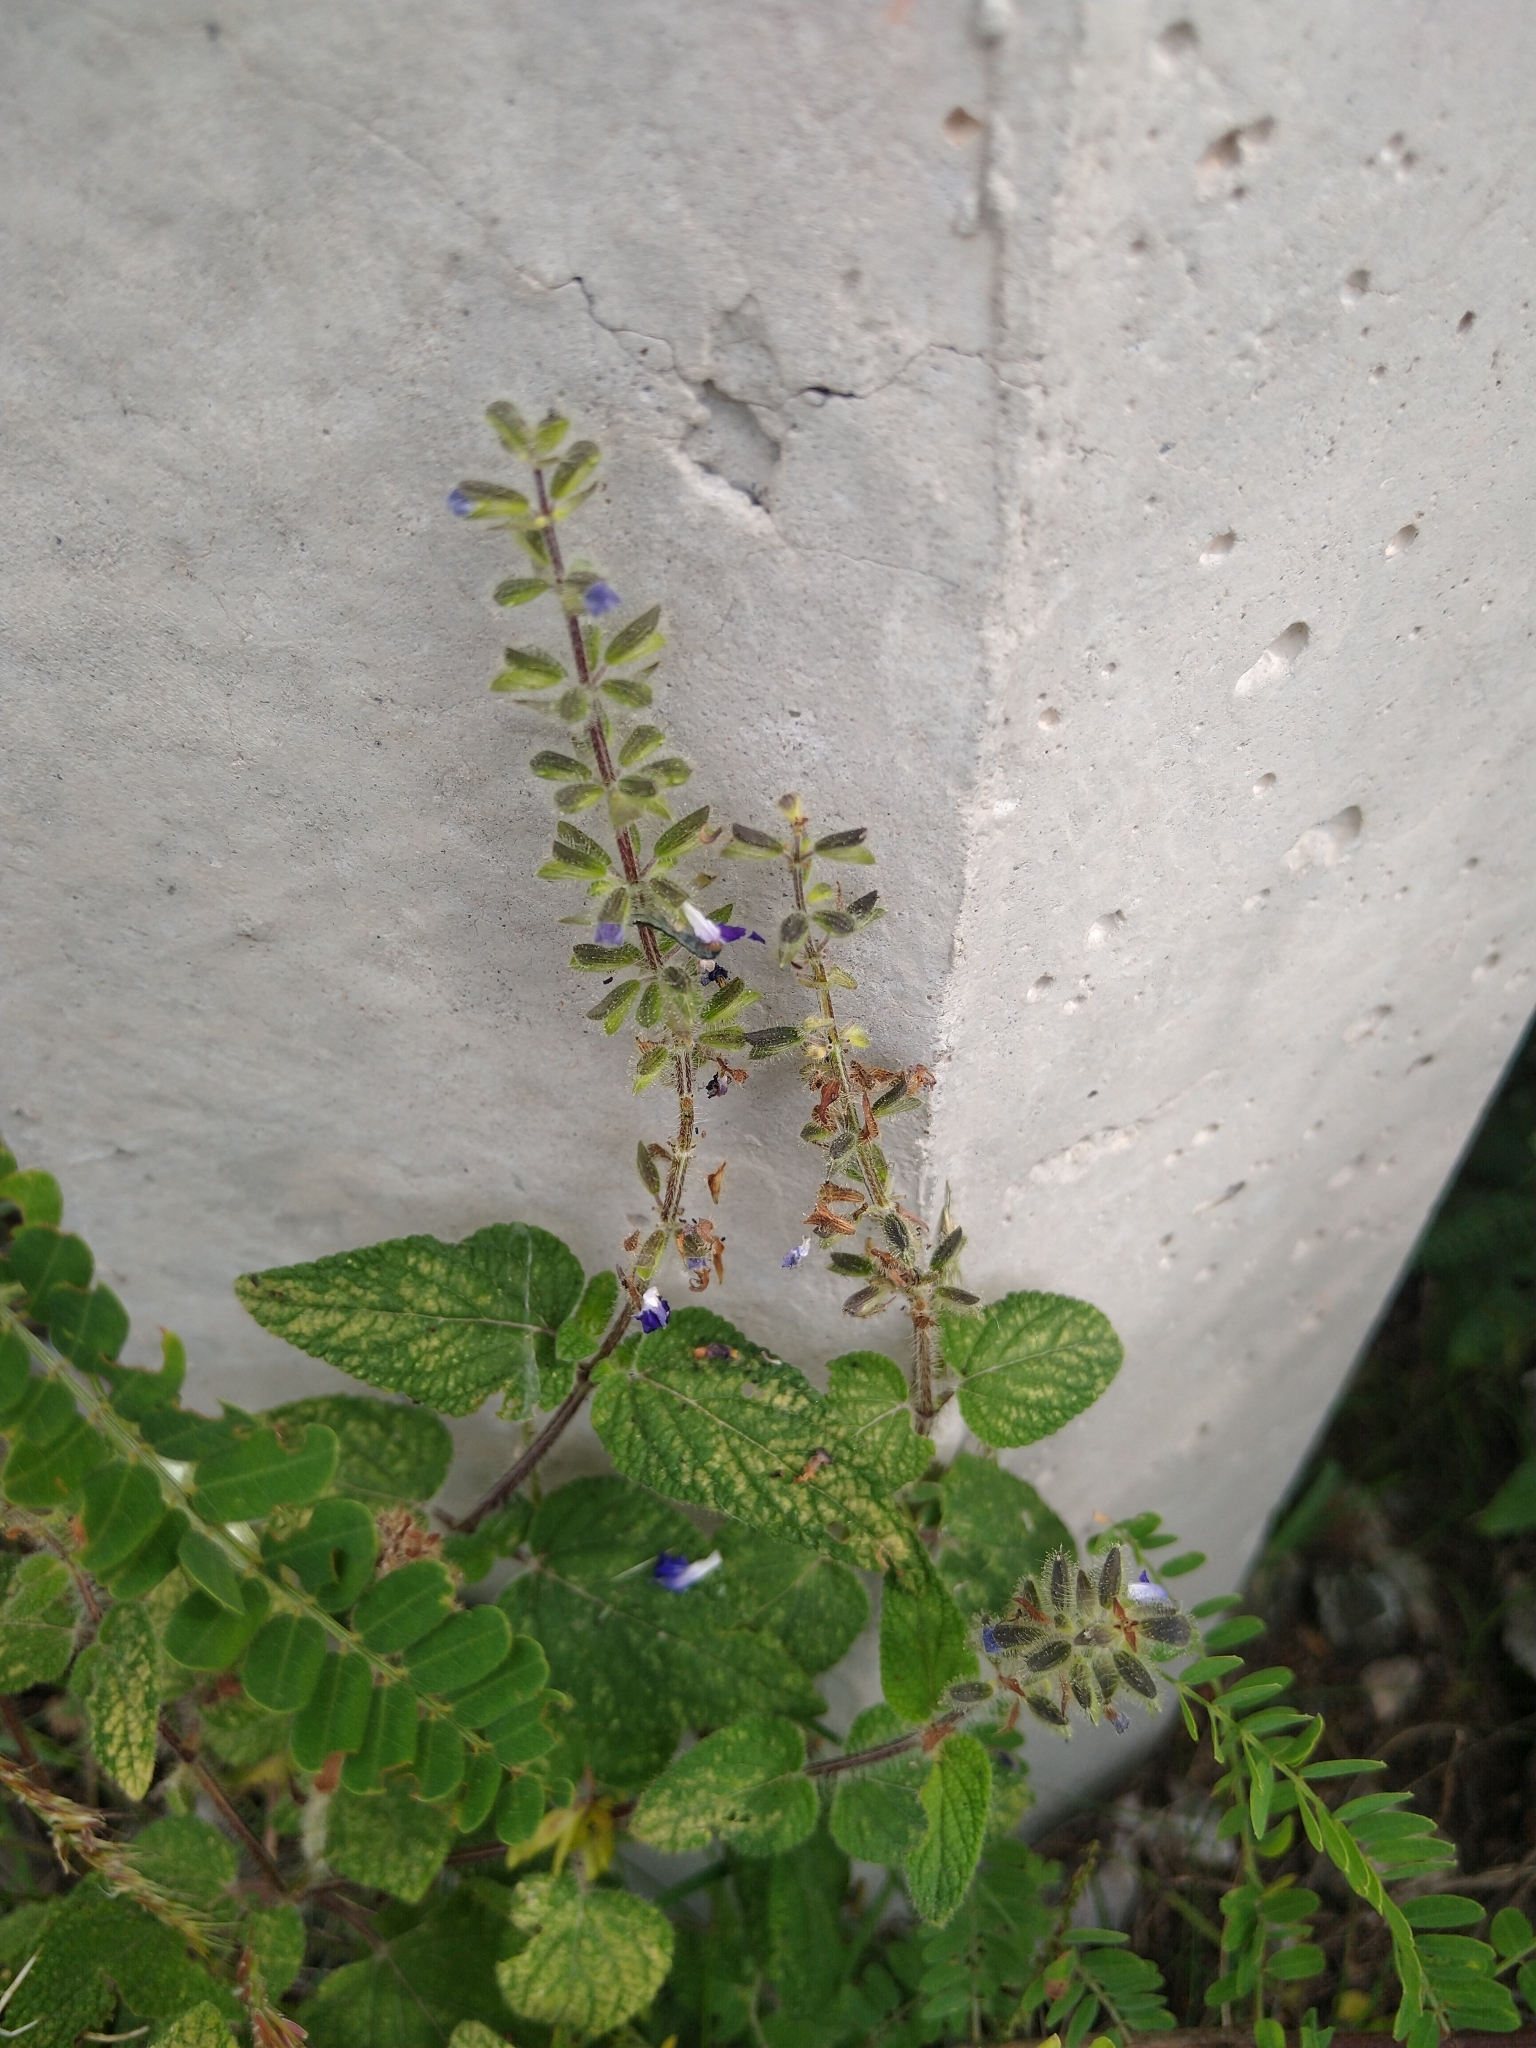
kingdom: Plantae
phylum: Tracheophyta
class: Magnoliopsida
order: Lamiales
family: Lamiaceae
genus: Salvia
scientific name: Salvia circinnata
